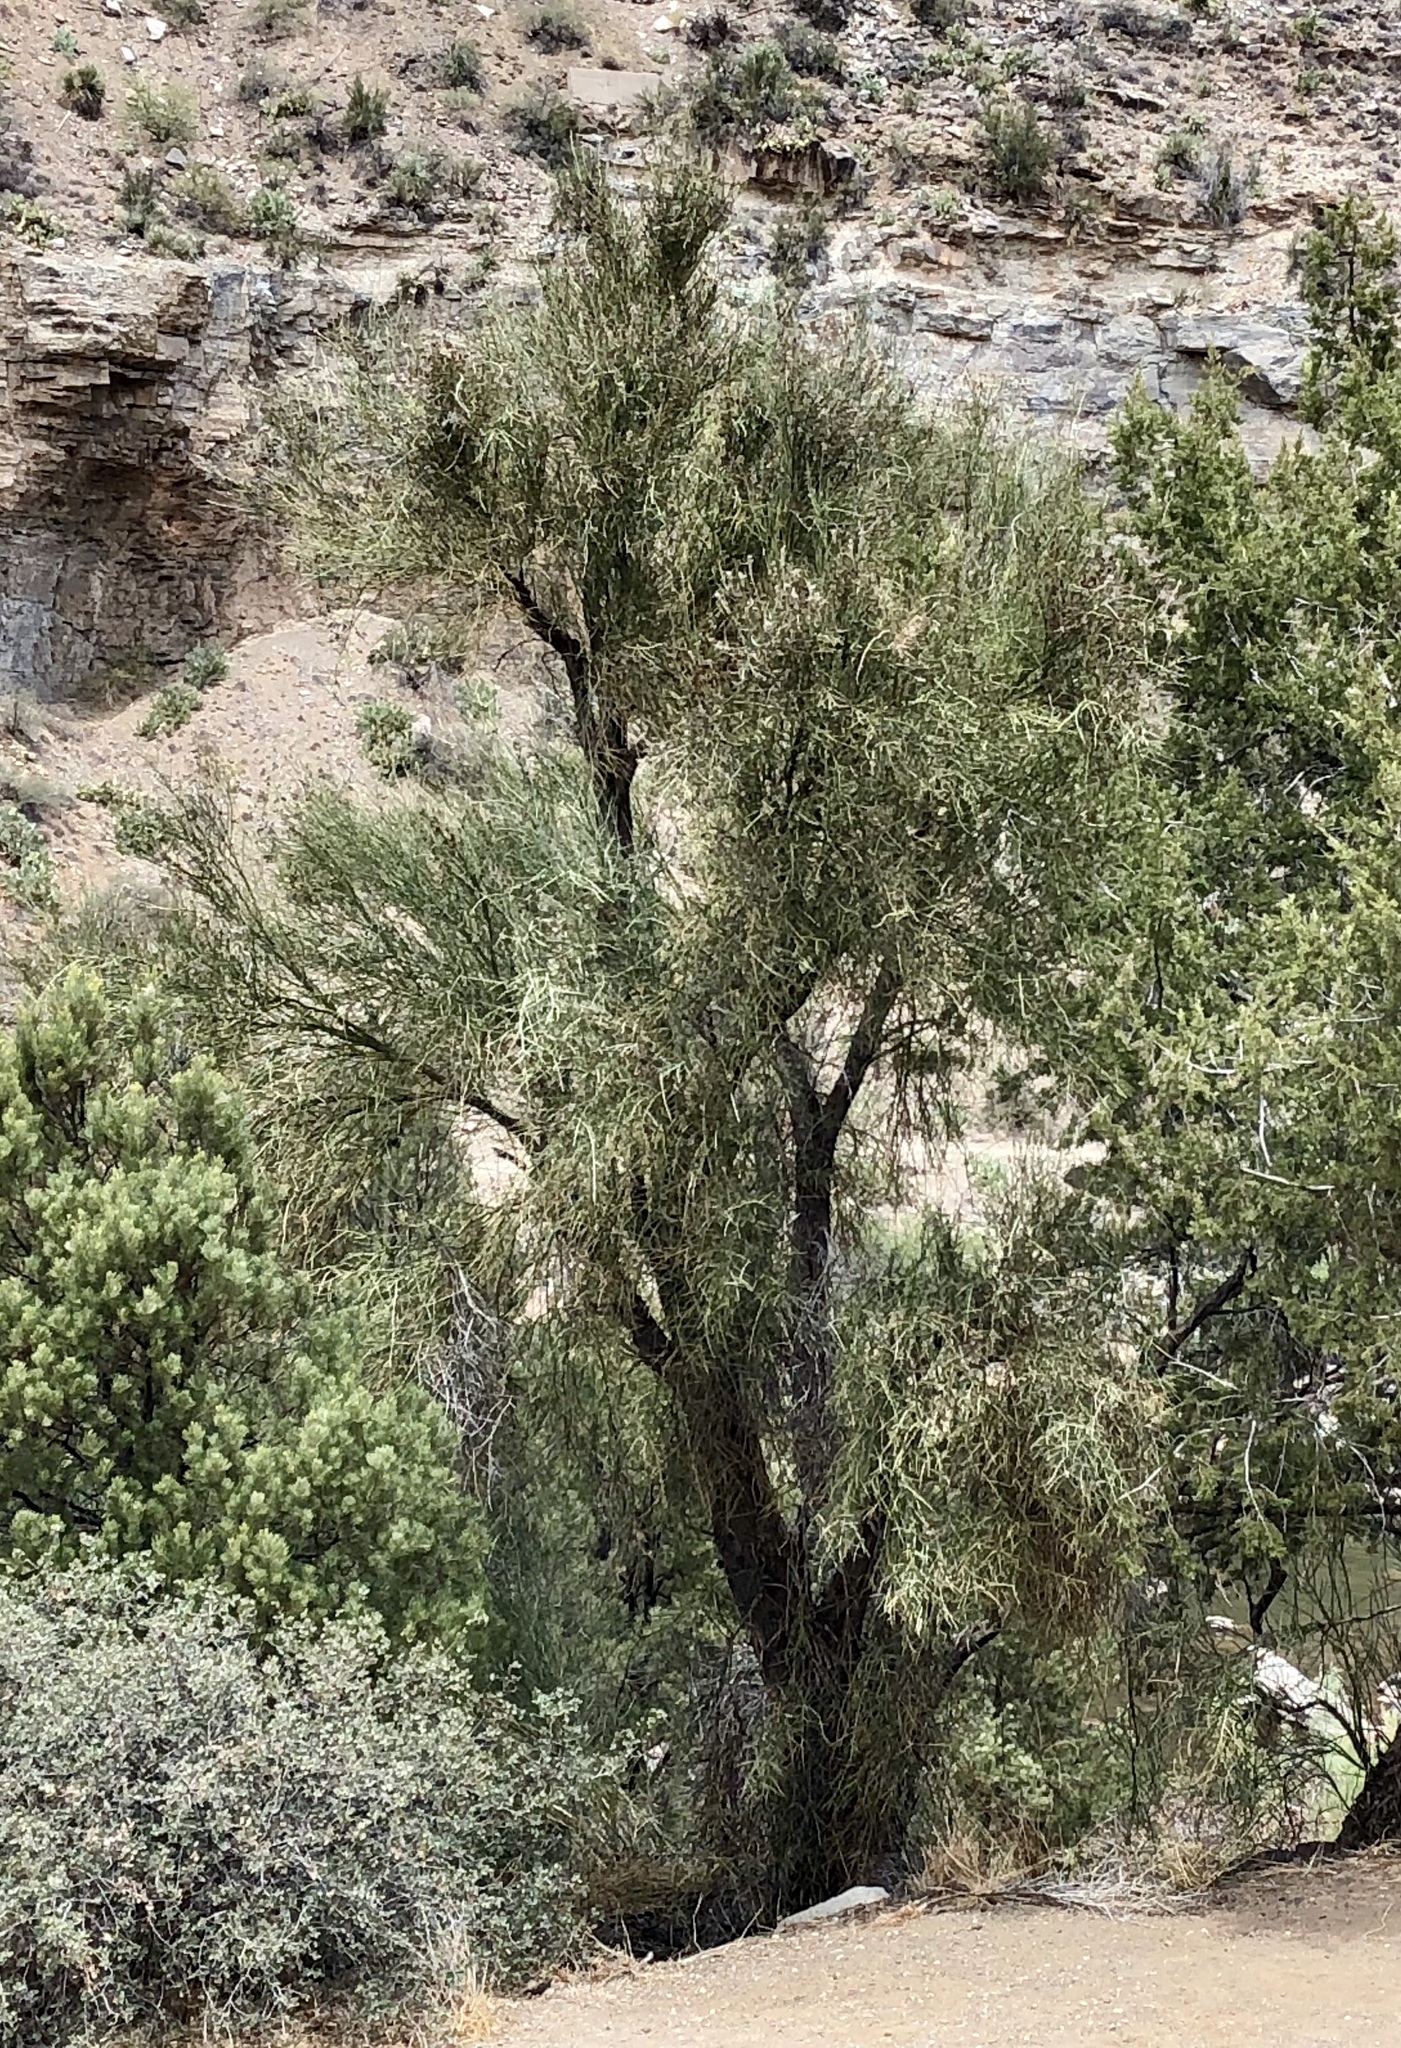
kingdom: Plantae
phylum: Tracheophyta
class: Magnoliopsida
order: Celastrales
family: Celastraceae
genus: Canotia
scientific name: Canotia holacantha
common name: Crucifixion thorns
